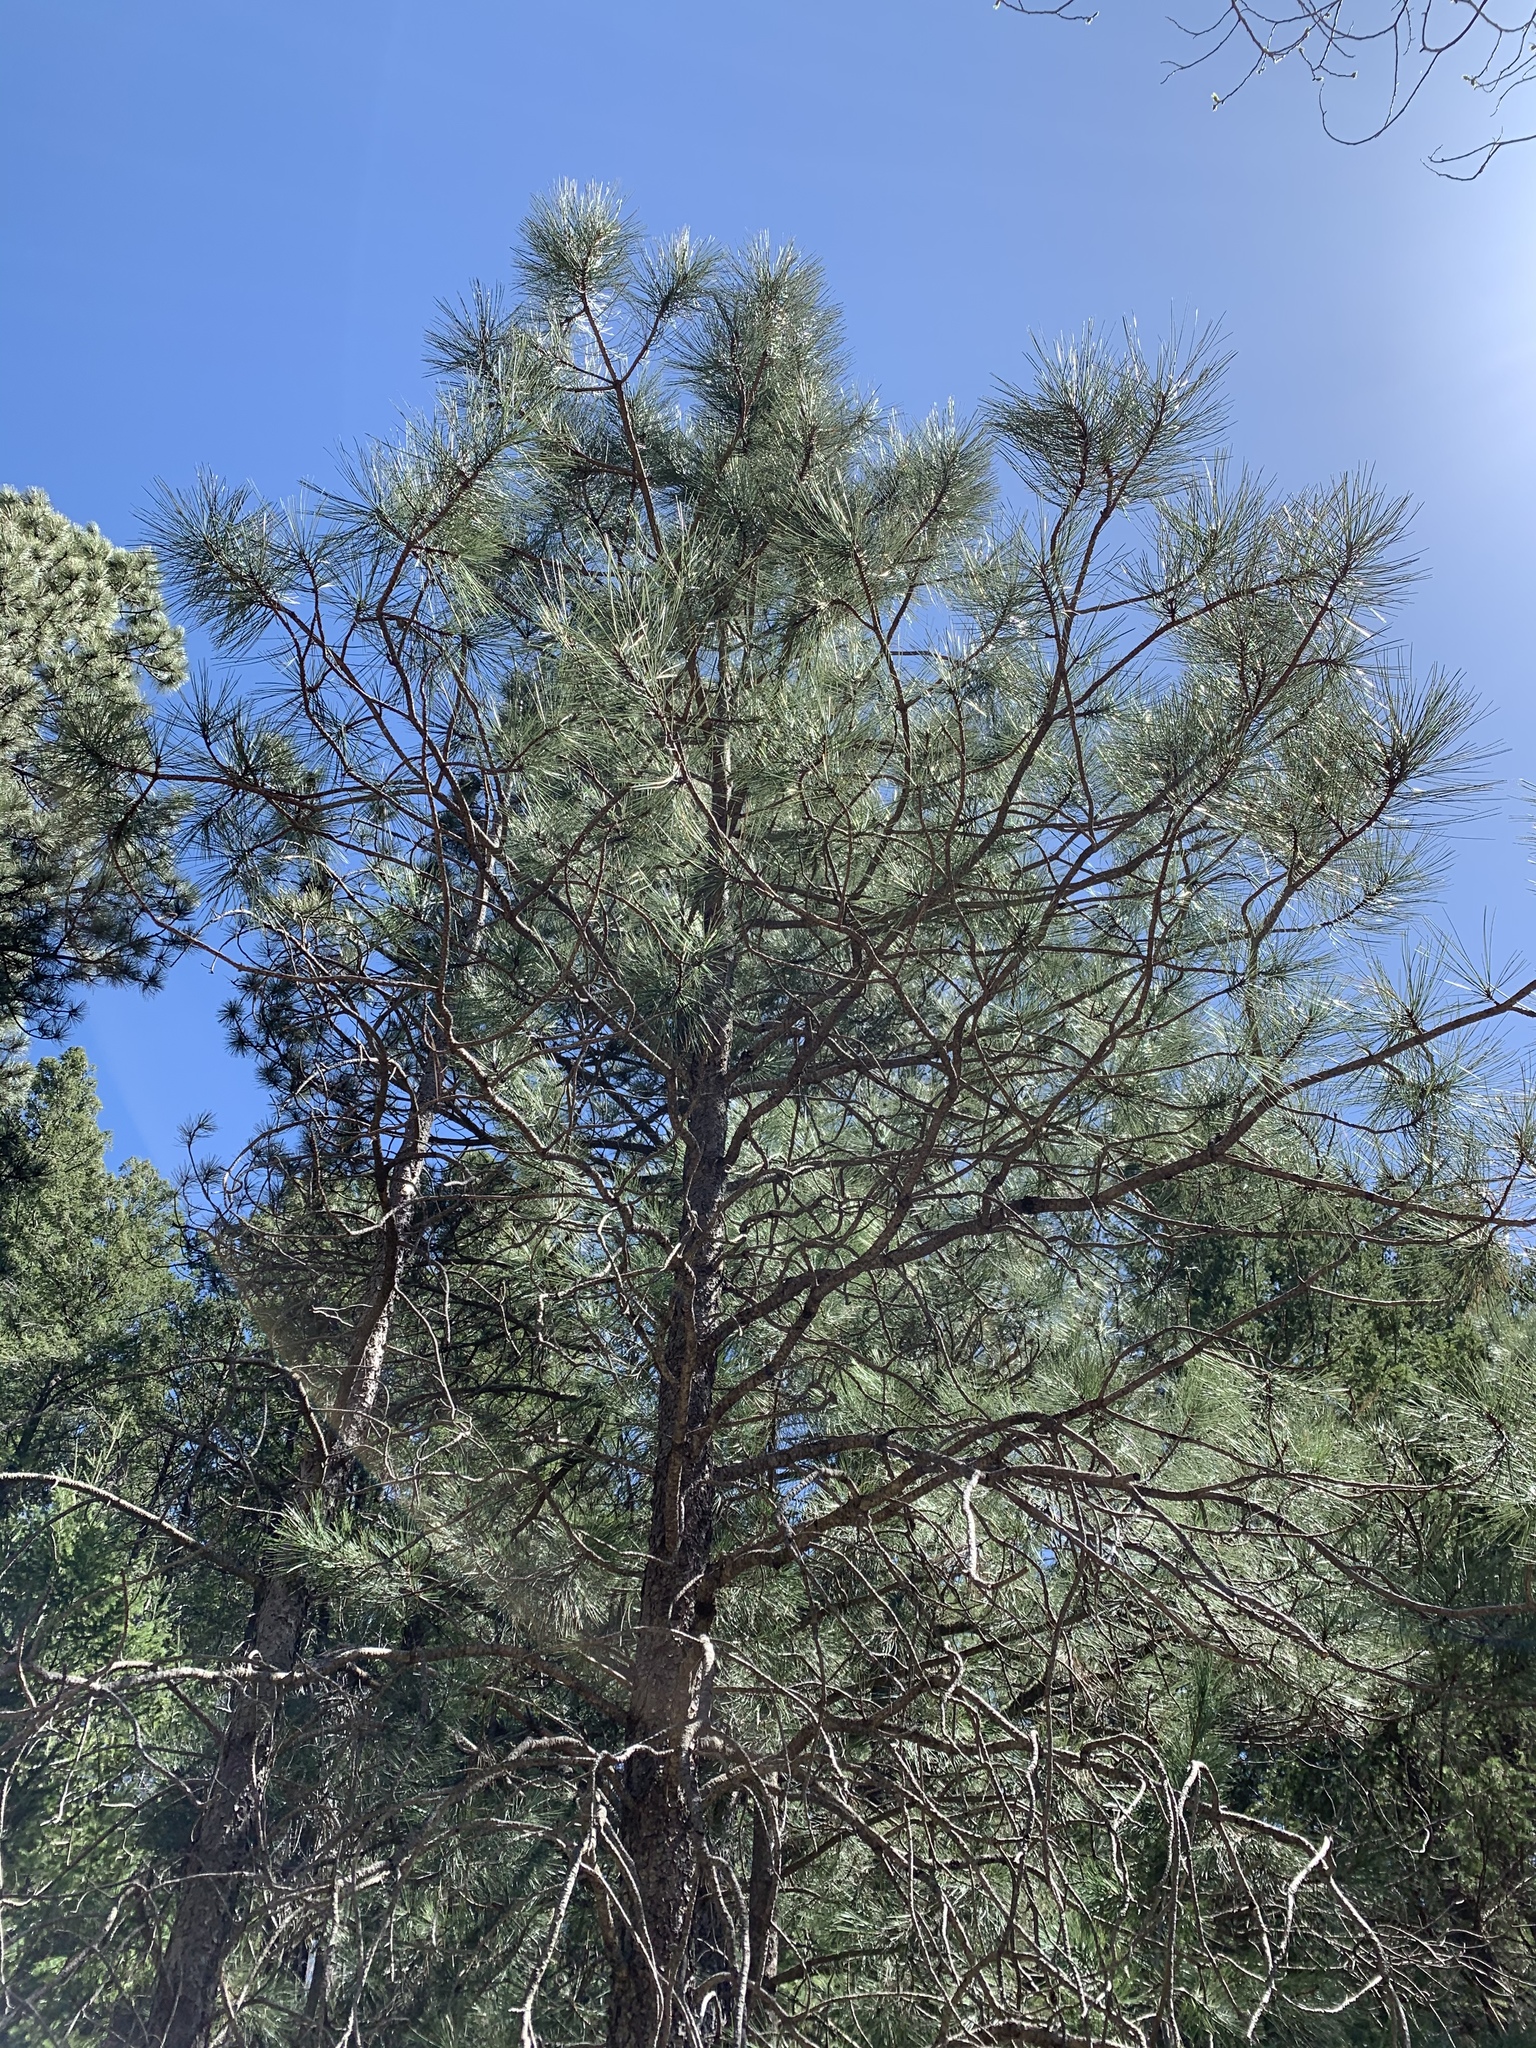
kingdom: Plantae
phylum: Tracheophyta
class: Pinopsida
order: Pinales
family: Pinaceae
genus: Pinus
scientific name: Pinus ponderosa
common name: Western yellow-pine
